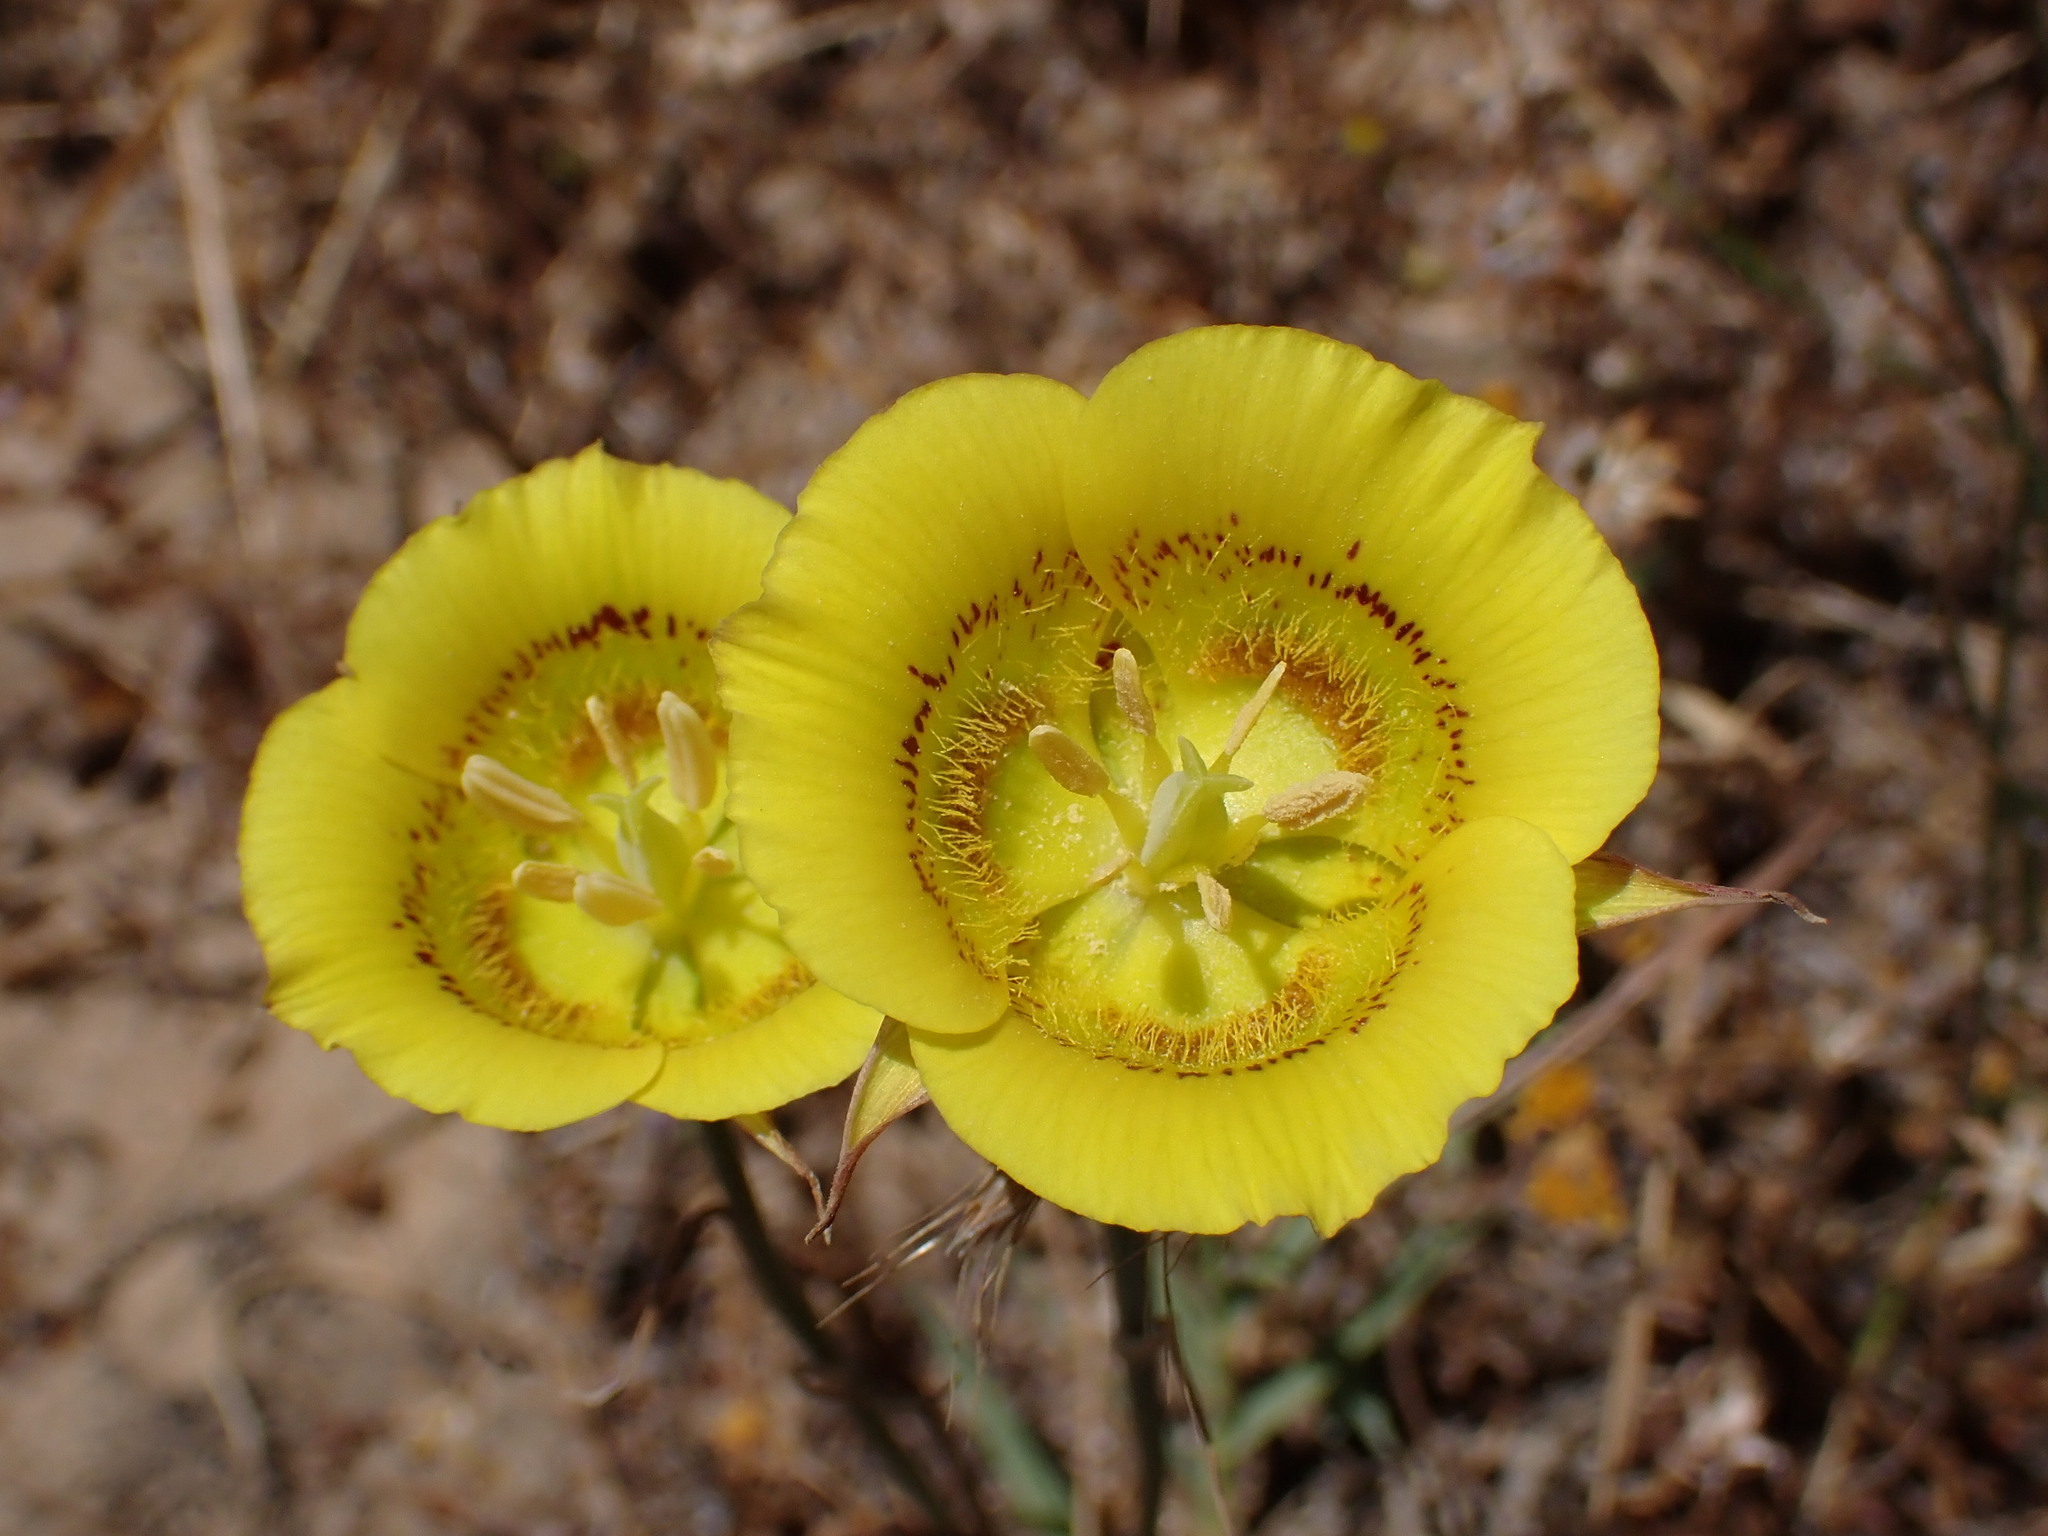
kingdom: Plantae
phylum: Tracheophyta
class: Liliopsida
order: Liliales
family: Liliaceae
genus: Calochortus
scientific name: Calochortus luteus
